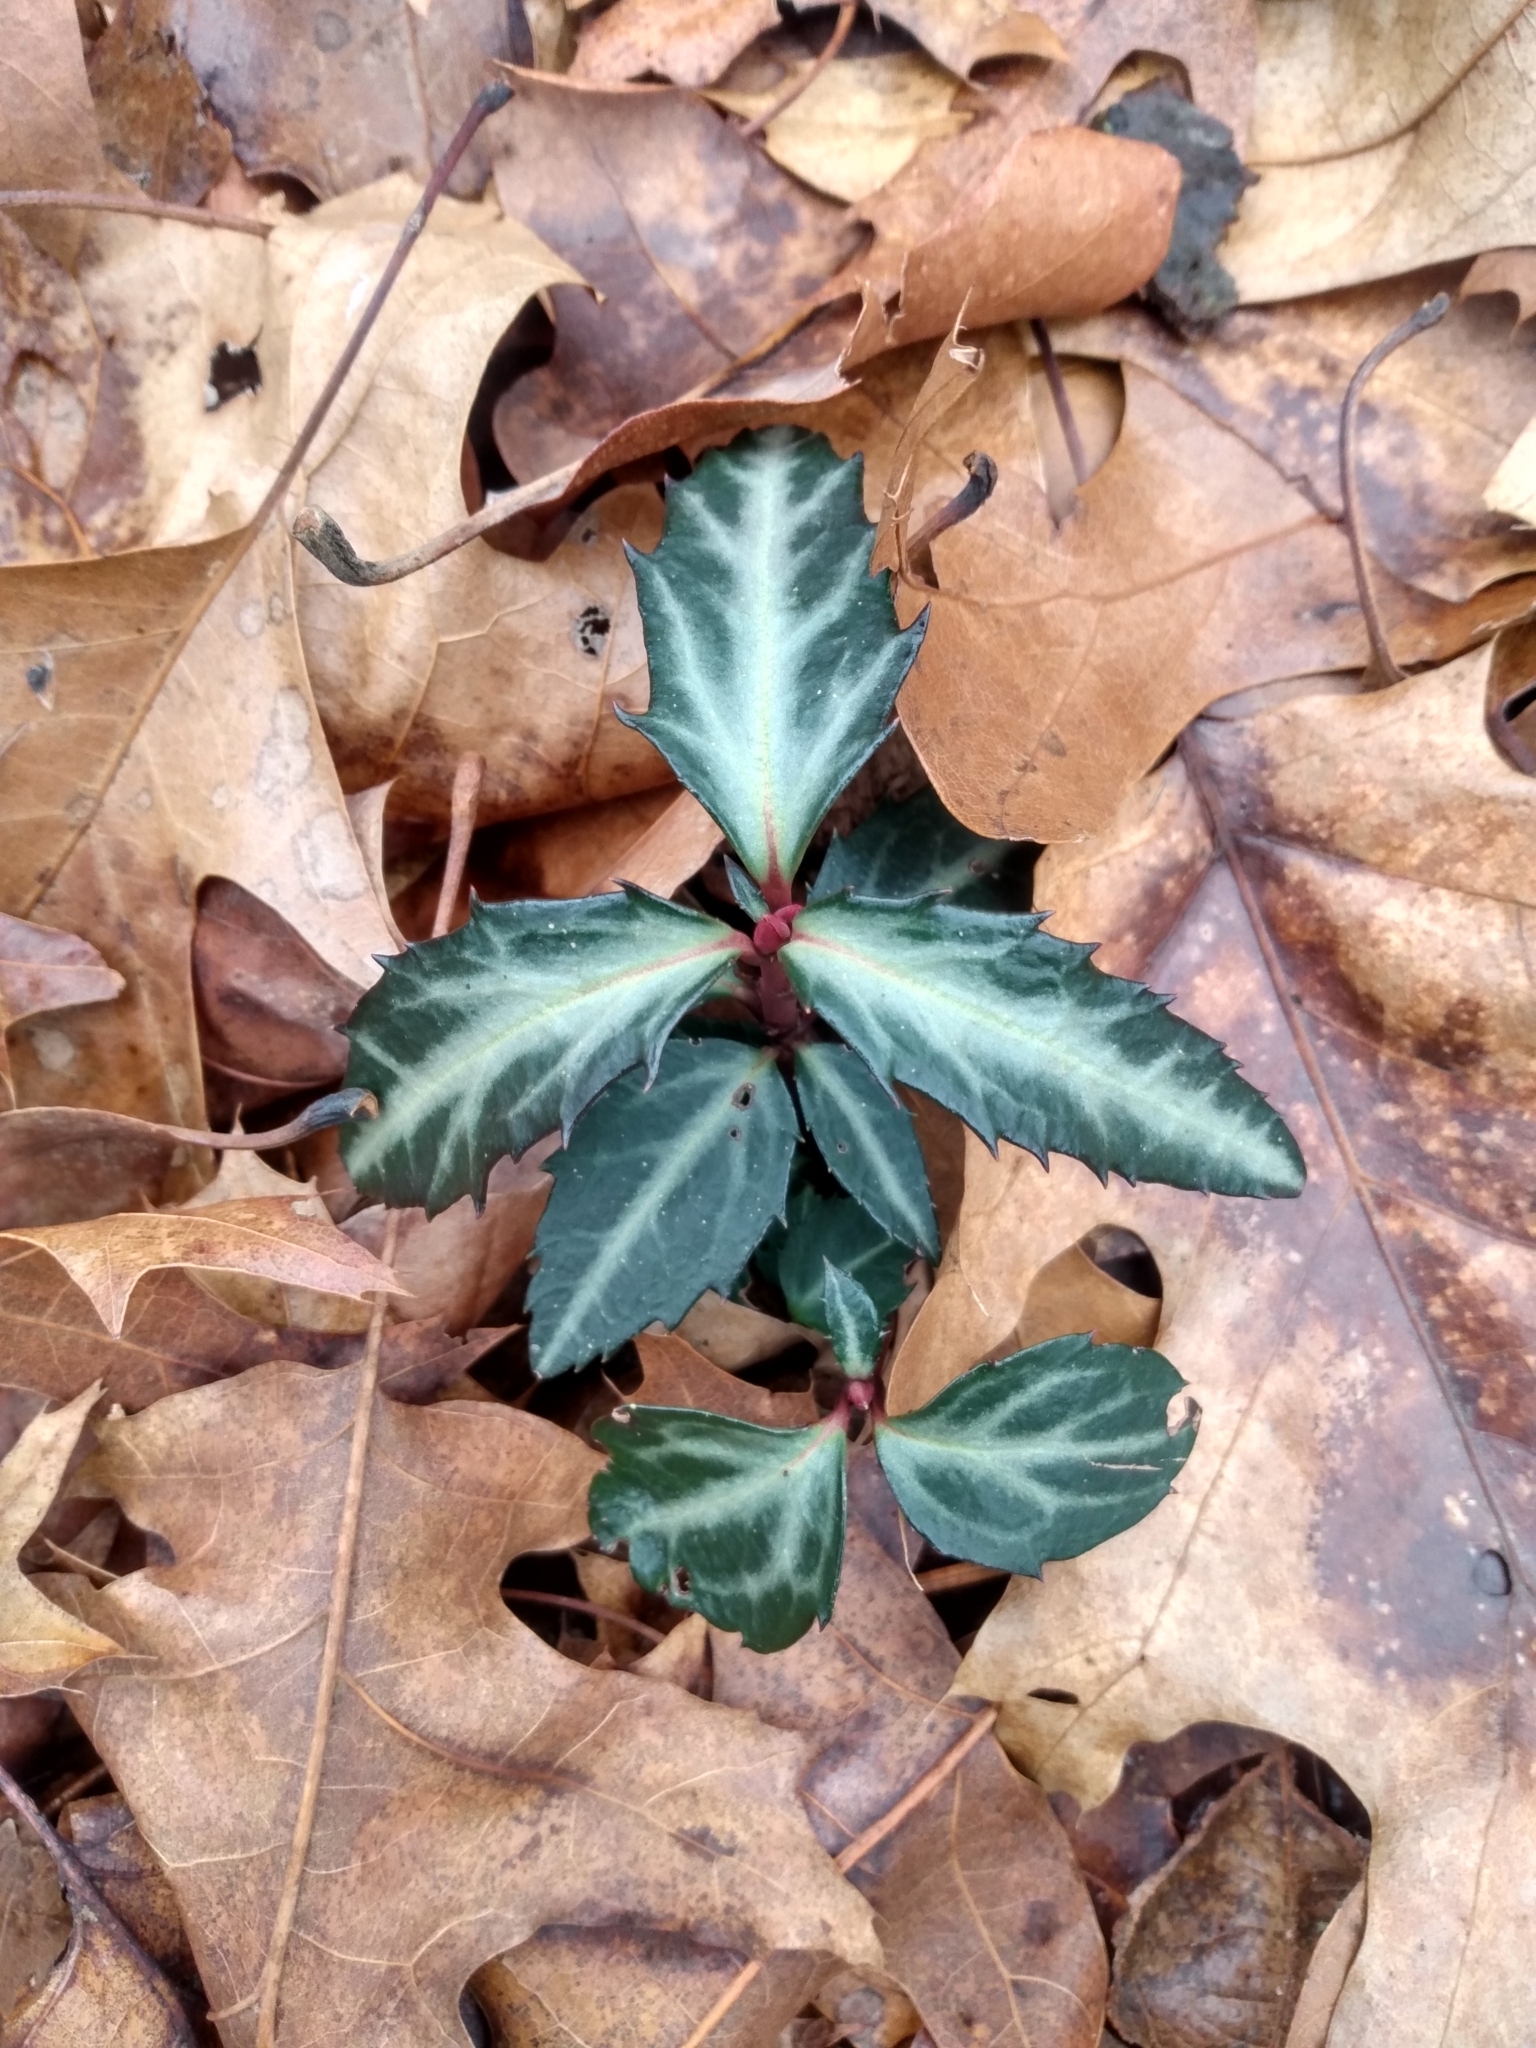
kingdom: Plantae
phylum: Tracheophyta
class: Magnoliopsida
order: Ericales
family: Ericaceae
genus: Chimaphila
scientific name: Chimaphila maculata
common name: Spotted pipsissewa
